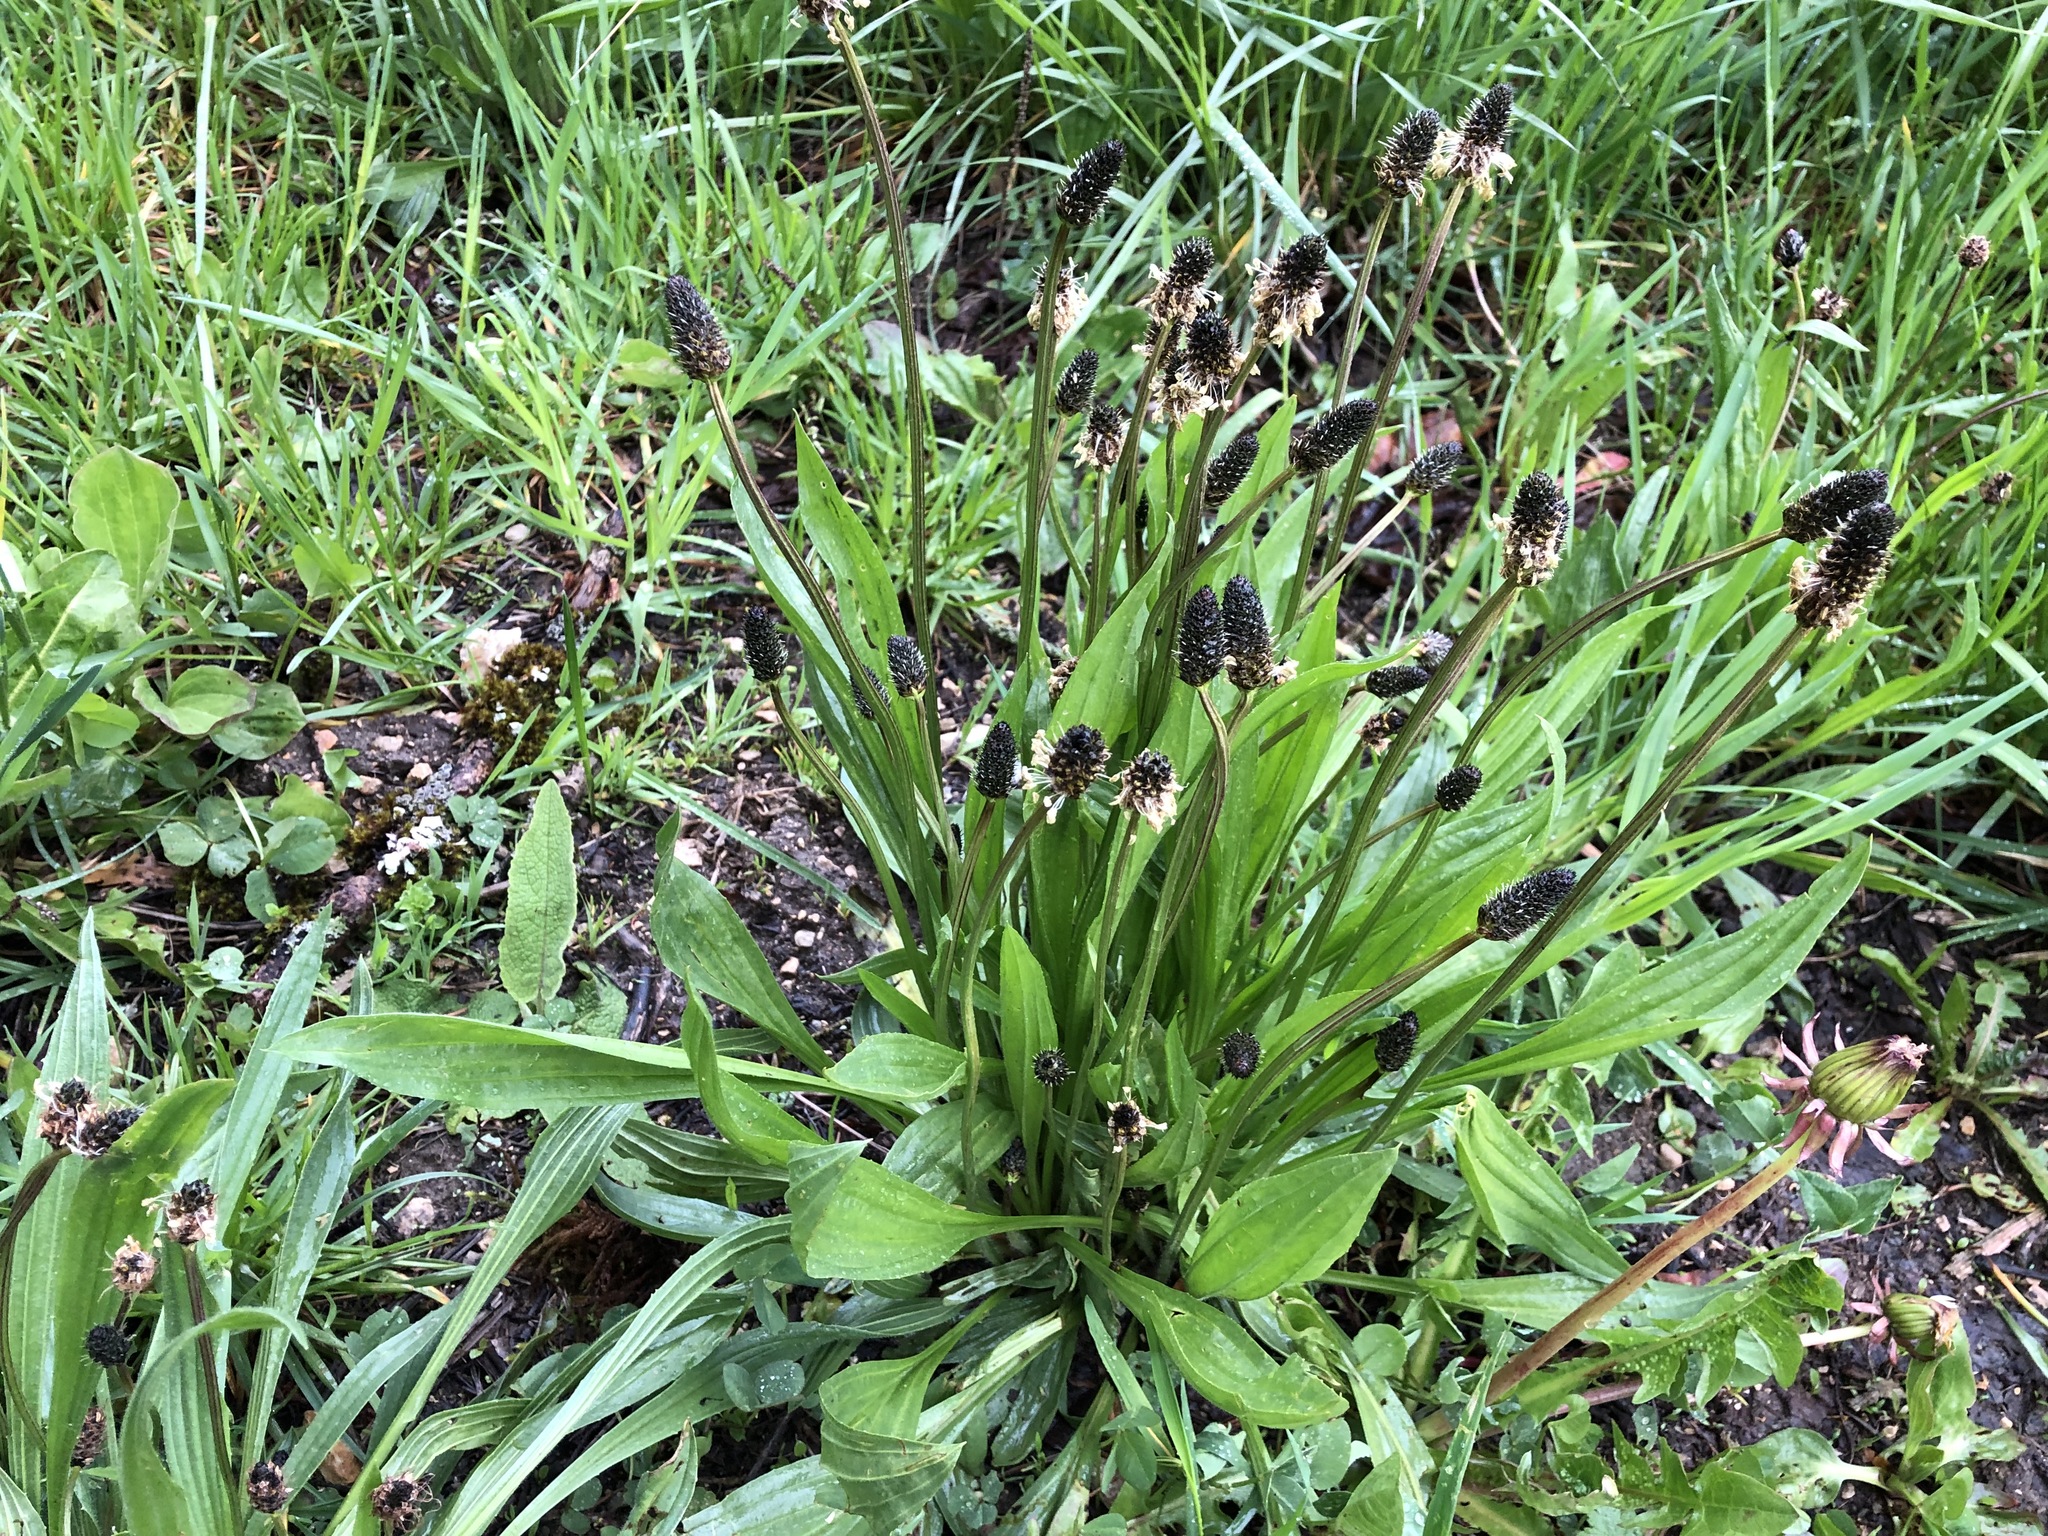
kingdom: Plantae
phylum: Tracheophyta
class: Magnoliopsida
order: Lamiales
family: Plantaginaceae
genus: Plantago
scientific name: Plantago lanceolata
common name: Ribwort plantain
